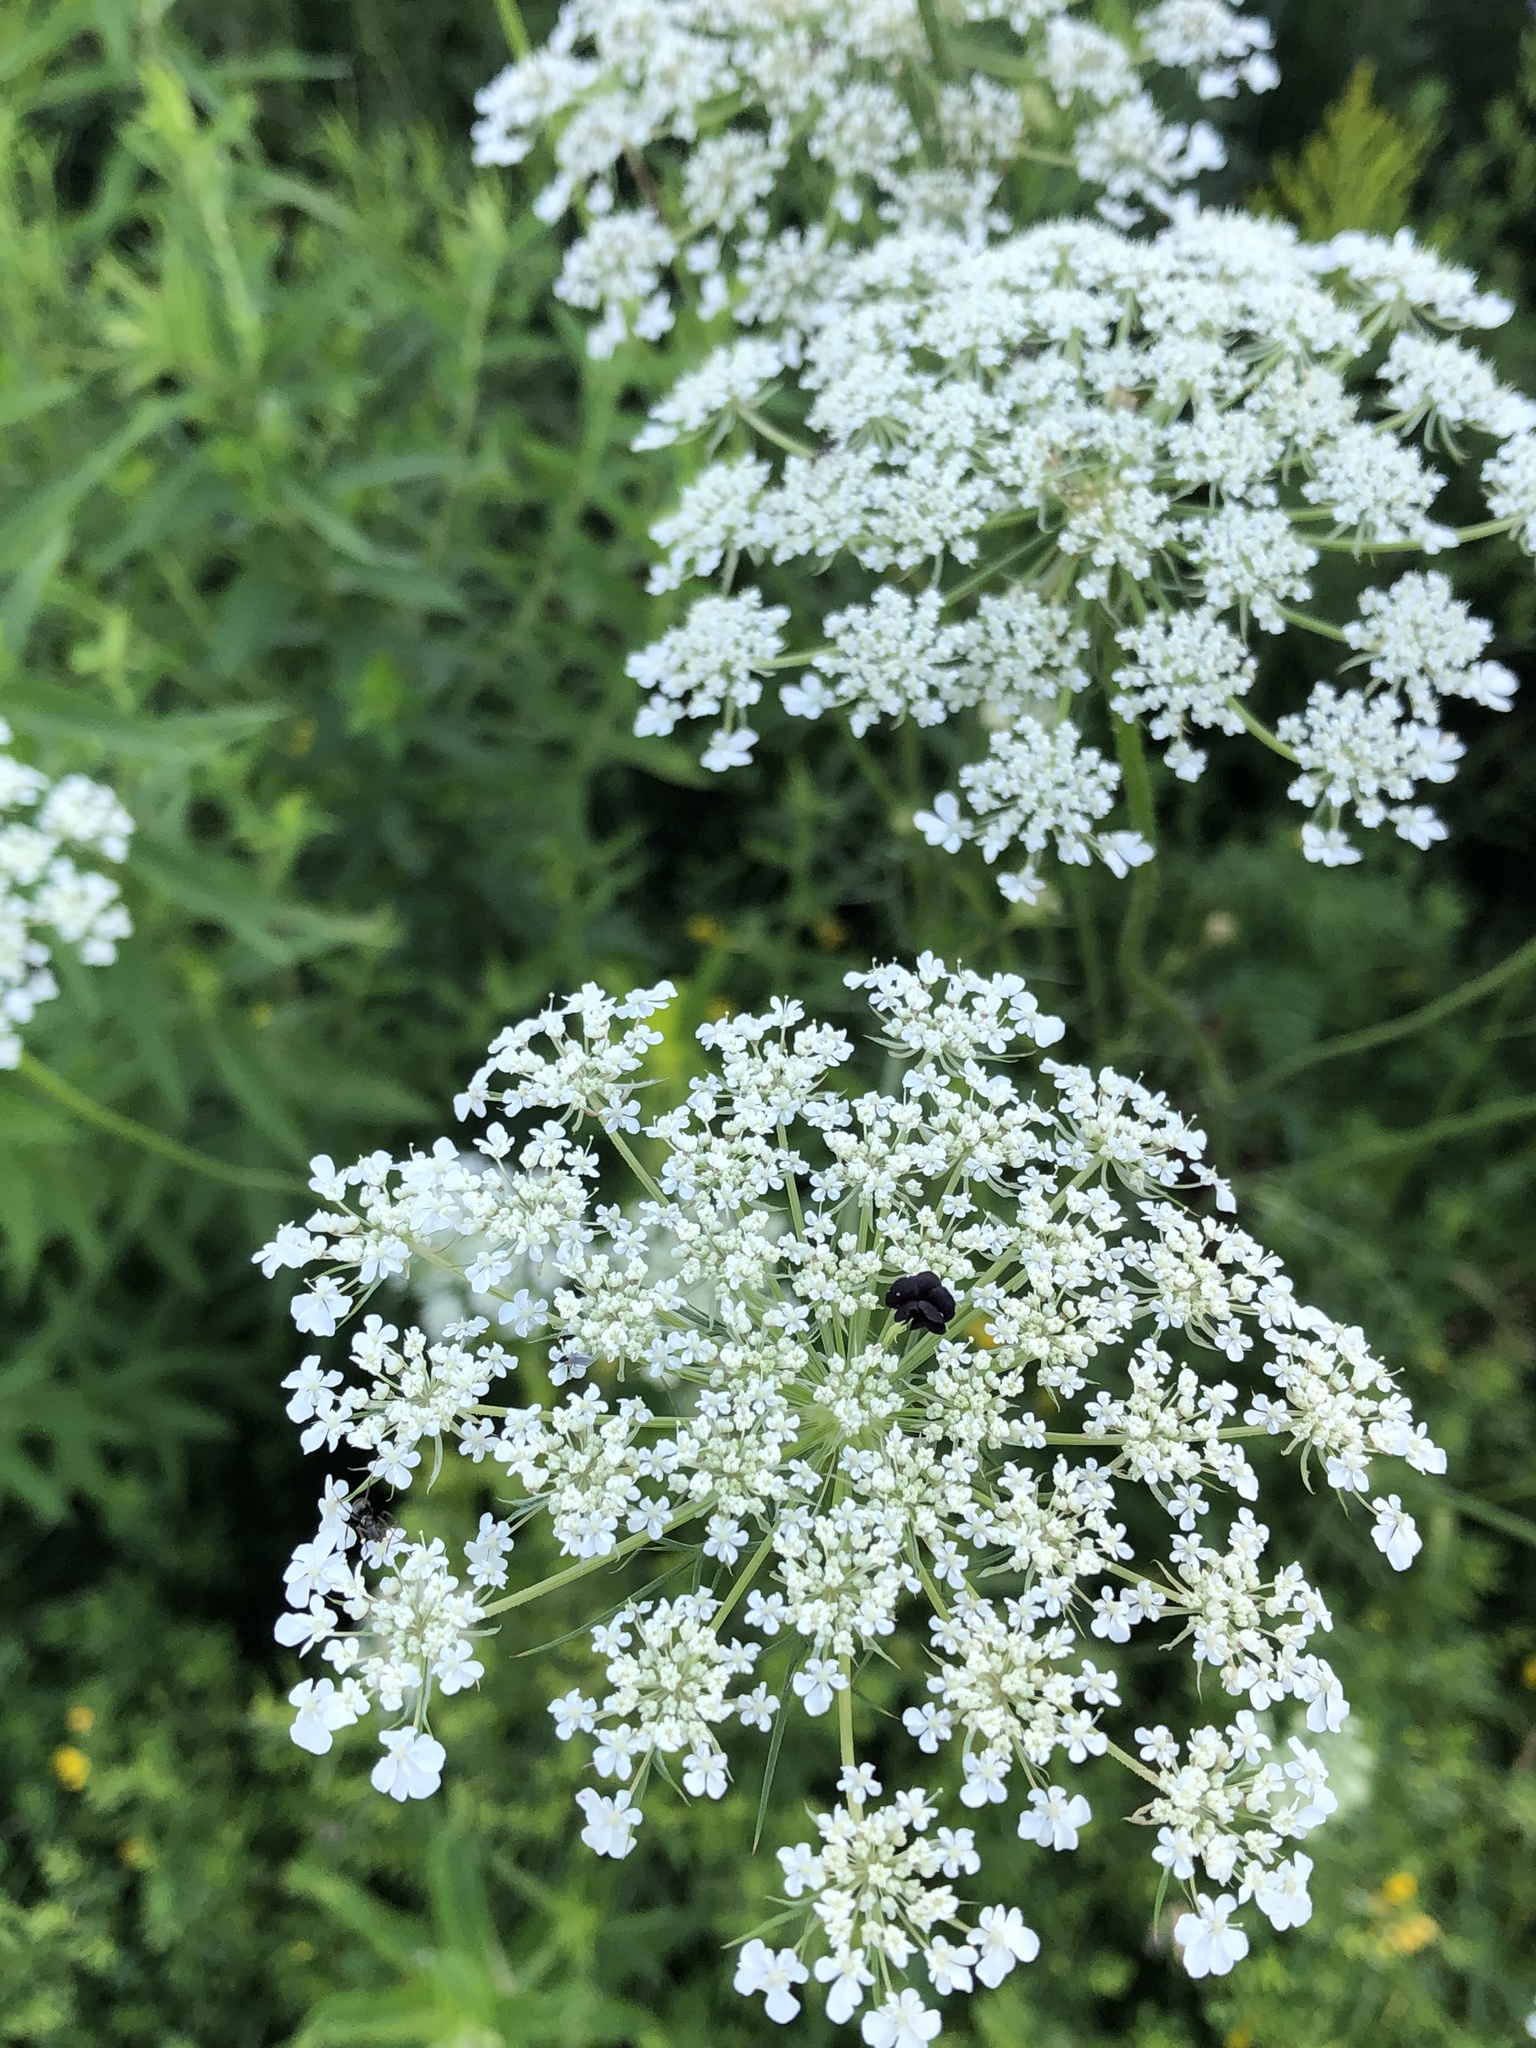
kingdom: Plantae
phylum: Tracheophyta
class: Magnoliopsida
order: Apiales
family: Apiaceae
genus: Daucus
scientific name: Daucus carota
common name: Wild carrot
